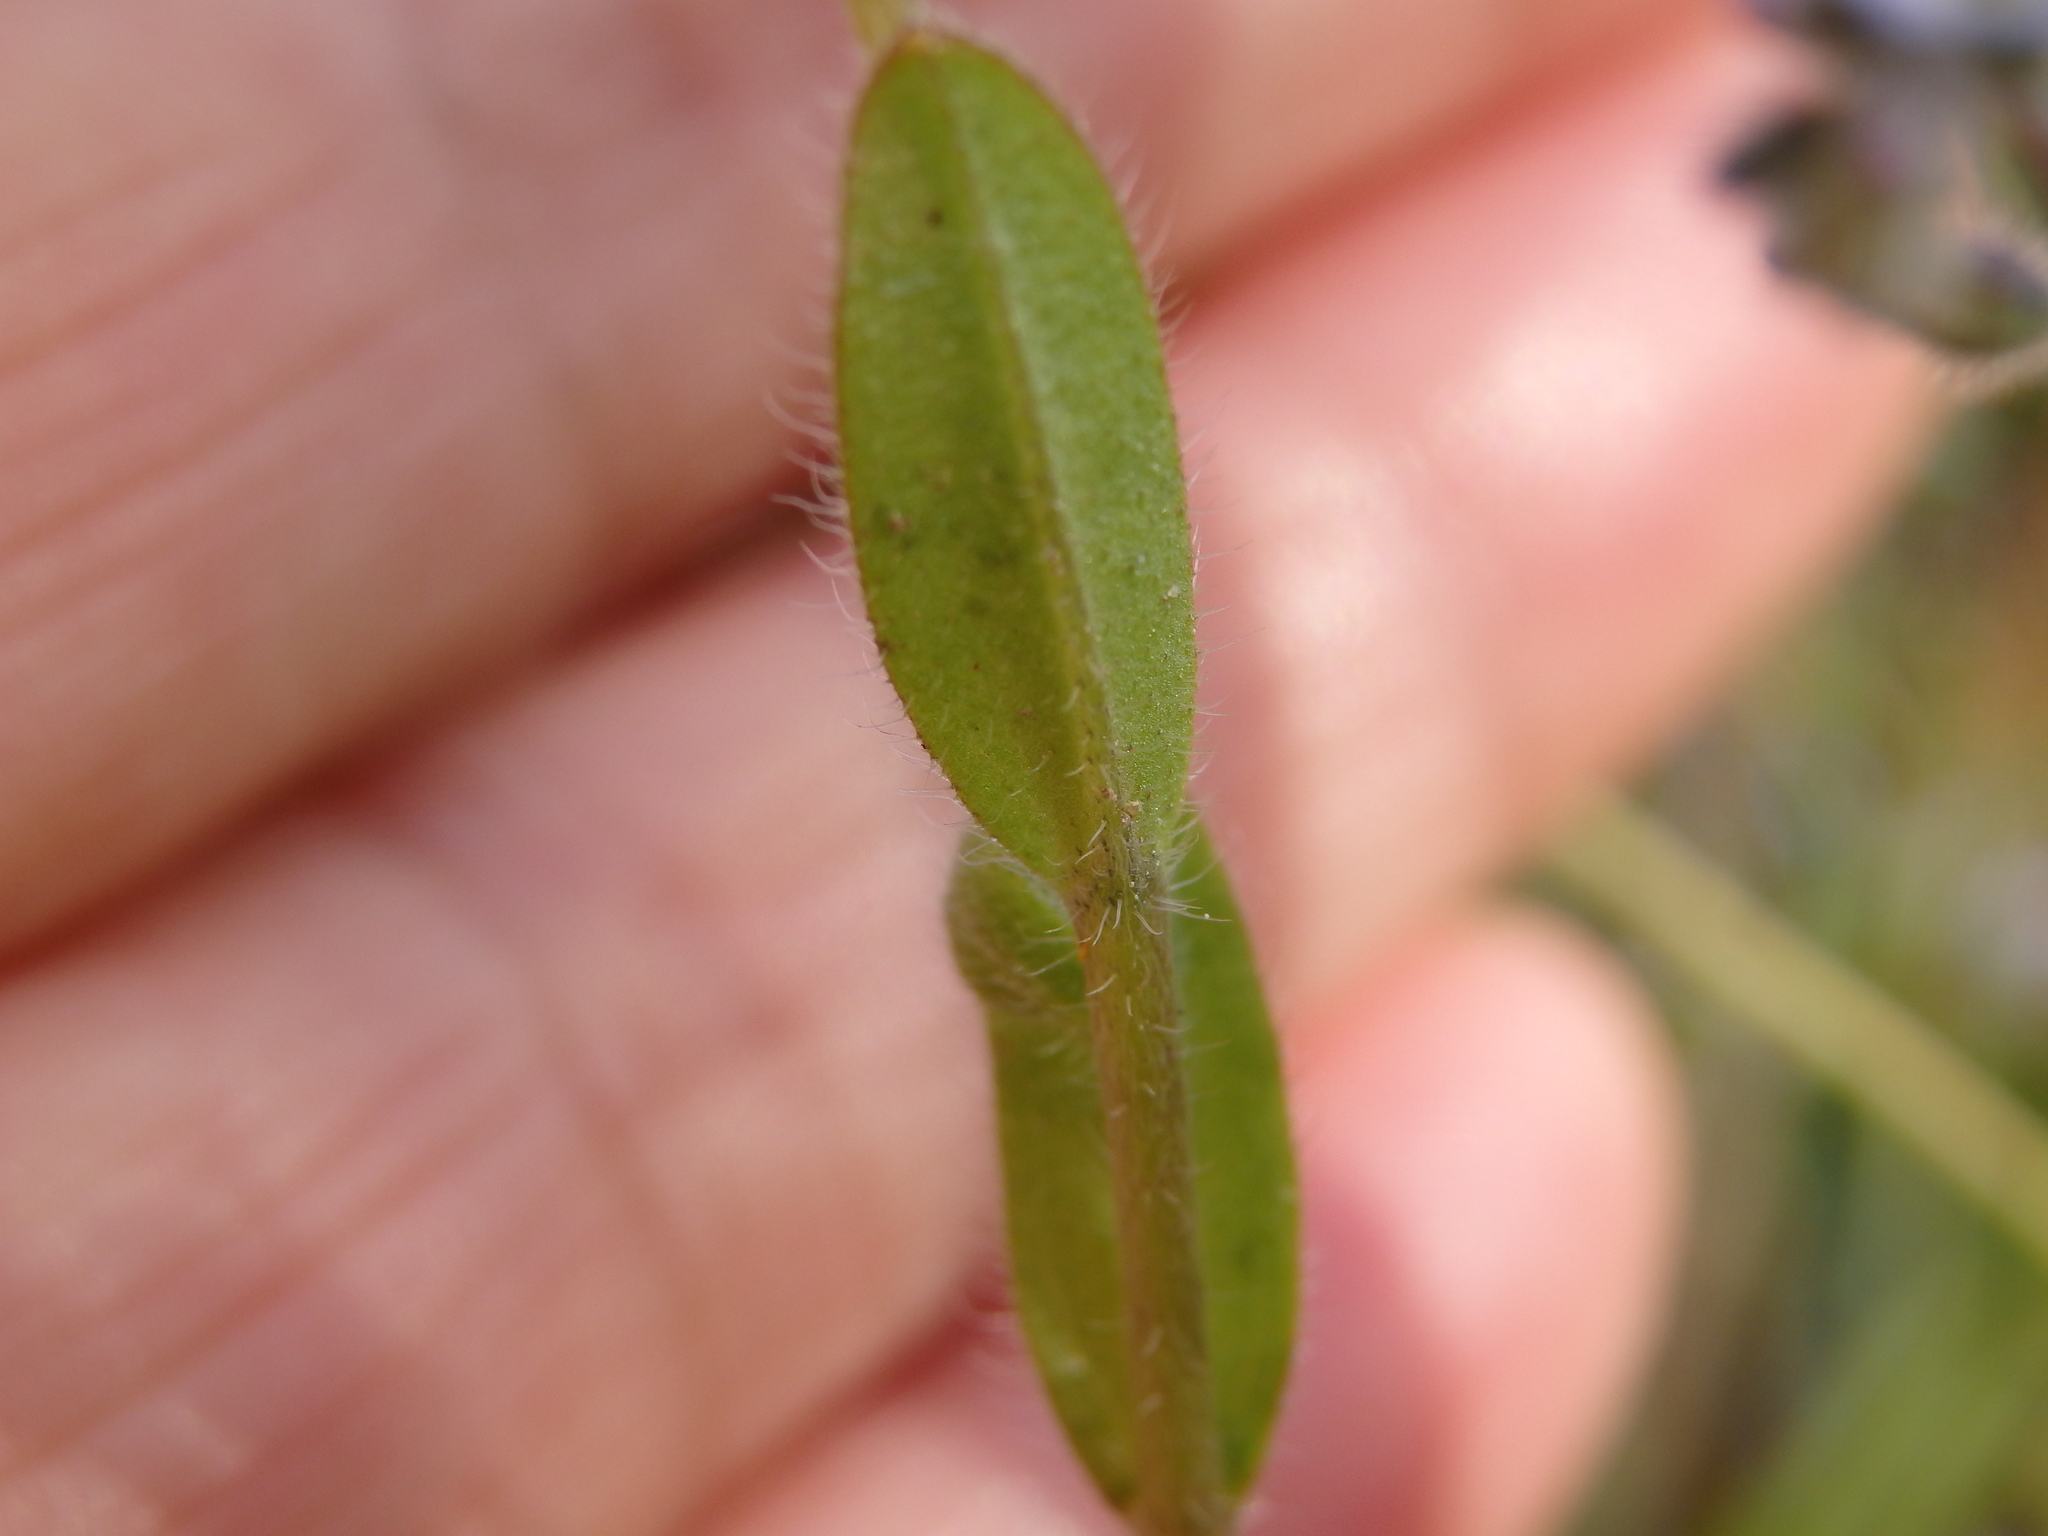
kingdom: Plantae
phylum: Tracheophyta
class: Magnoliopsida
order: Boraginales
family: Boraginaceae
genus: Myosotis
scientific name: Myosotis ramosissima
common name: Early forget-me-not
